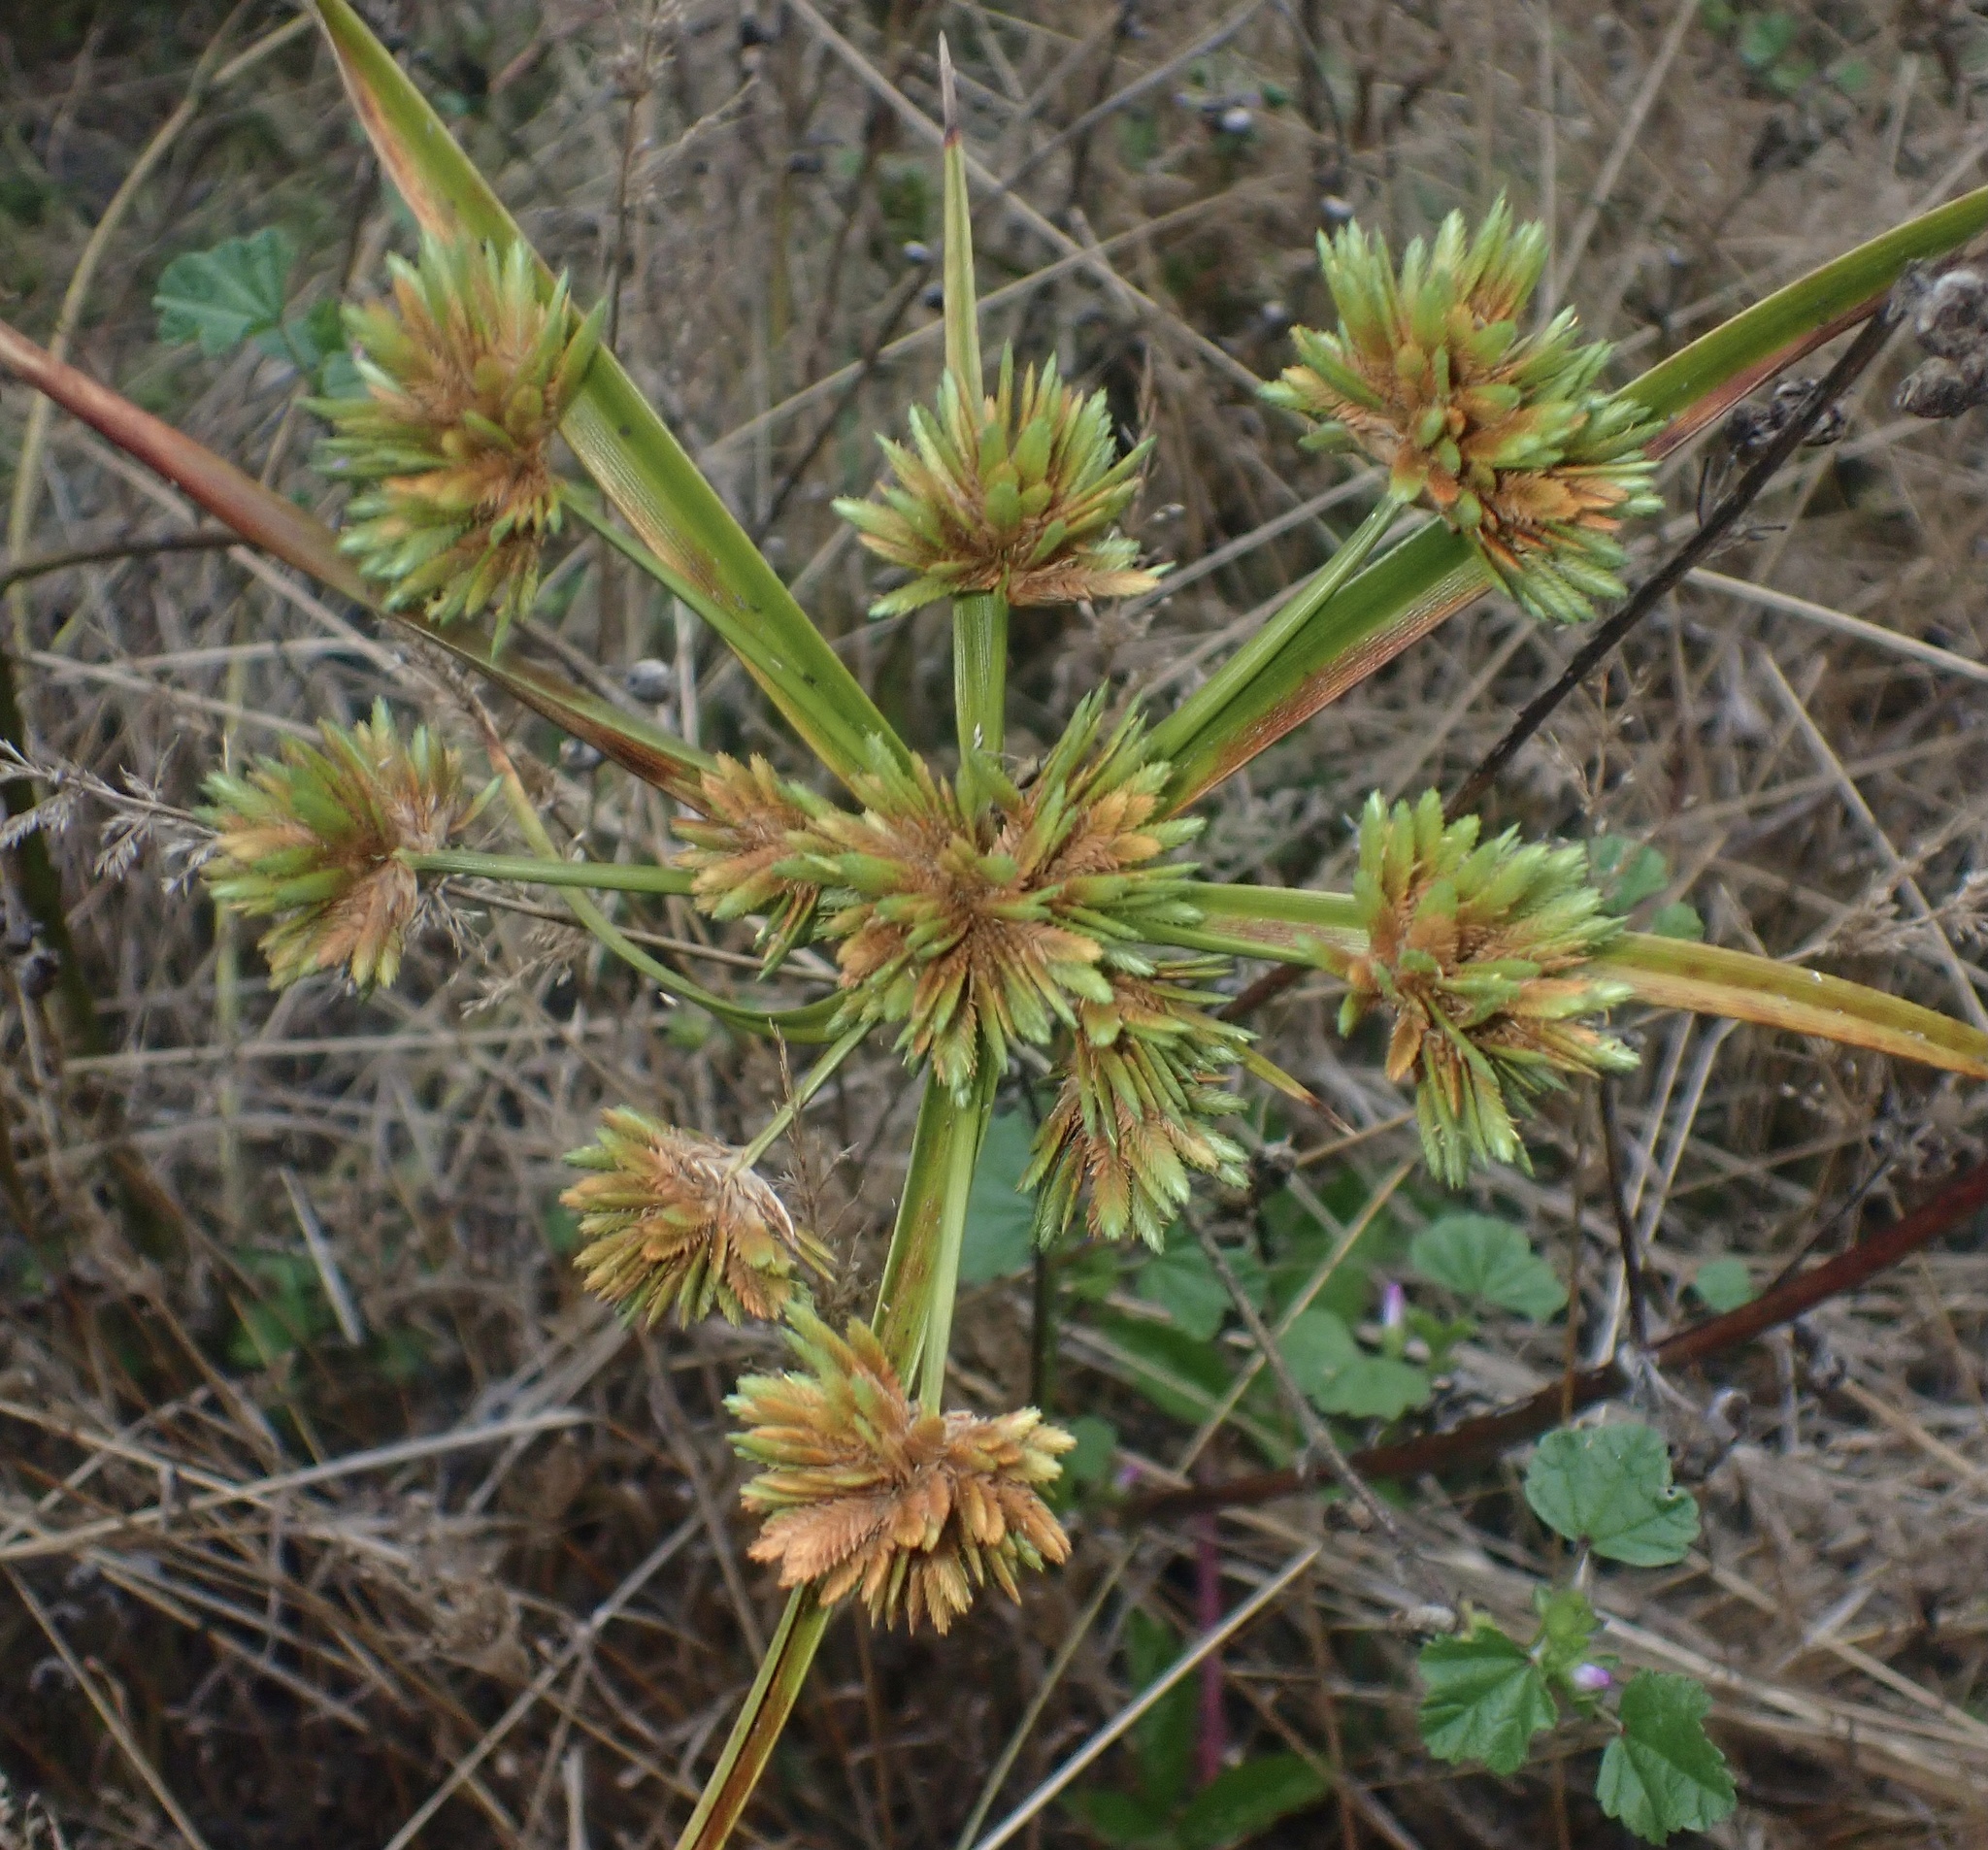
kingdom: Plantae
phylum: Tracheophyta
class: Liliopsida
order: Poales
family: Cyperaceae
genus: Cyperus
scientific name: Cyperus eragrostis
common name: Tall flatsedge
